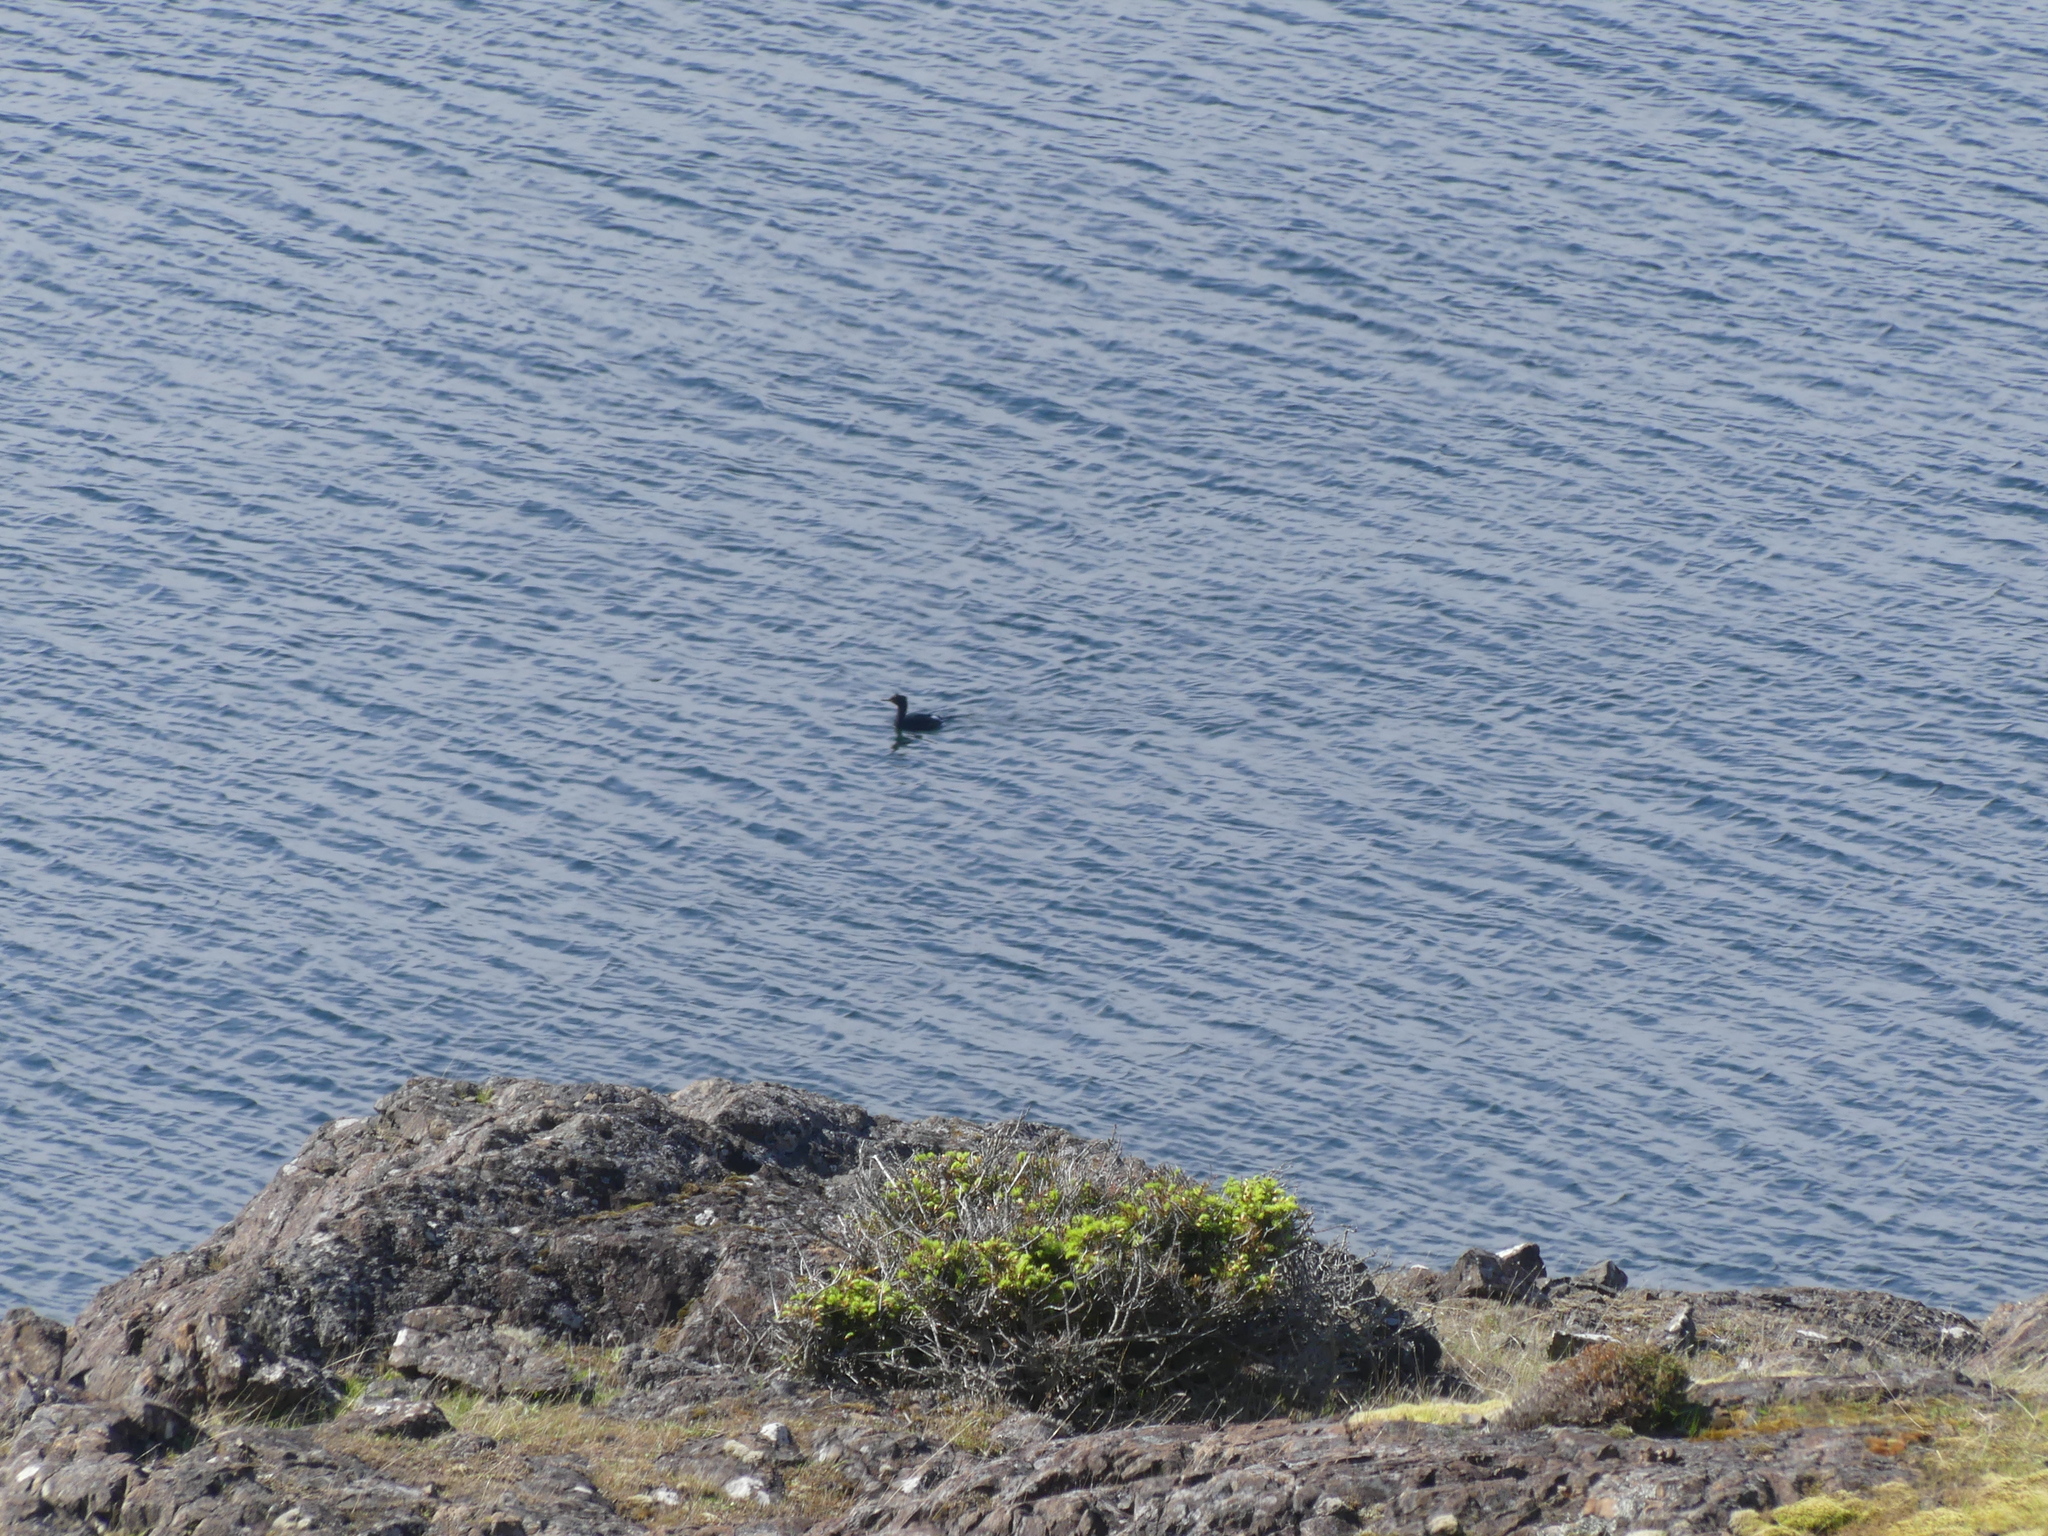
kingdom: Animalia
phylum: Chordata
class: Aves
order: Suliformes
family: Phalacrocoracidae
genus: Phalacrocorax
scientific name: Phalacrocorax pelagicus
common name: Pelagic cormorant
